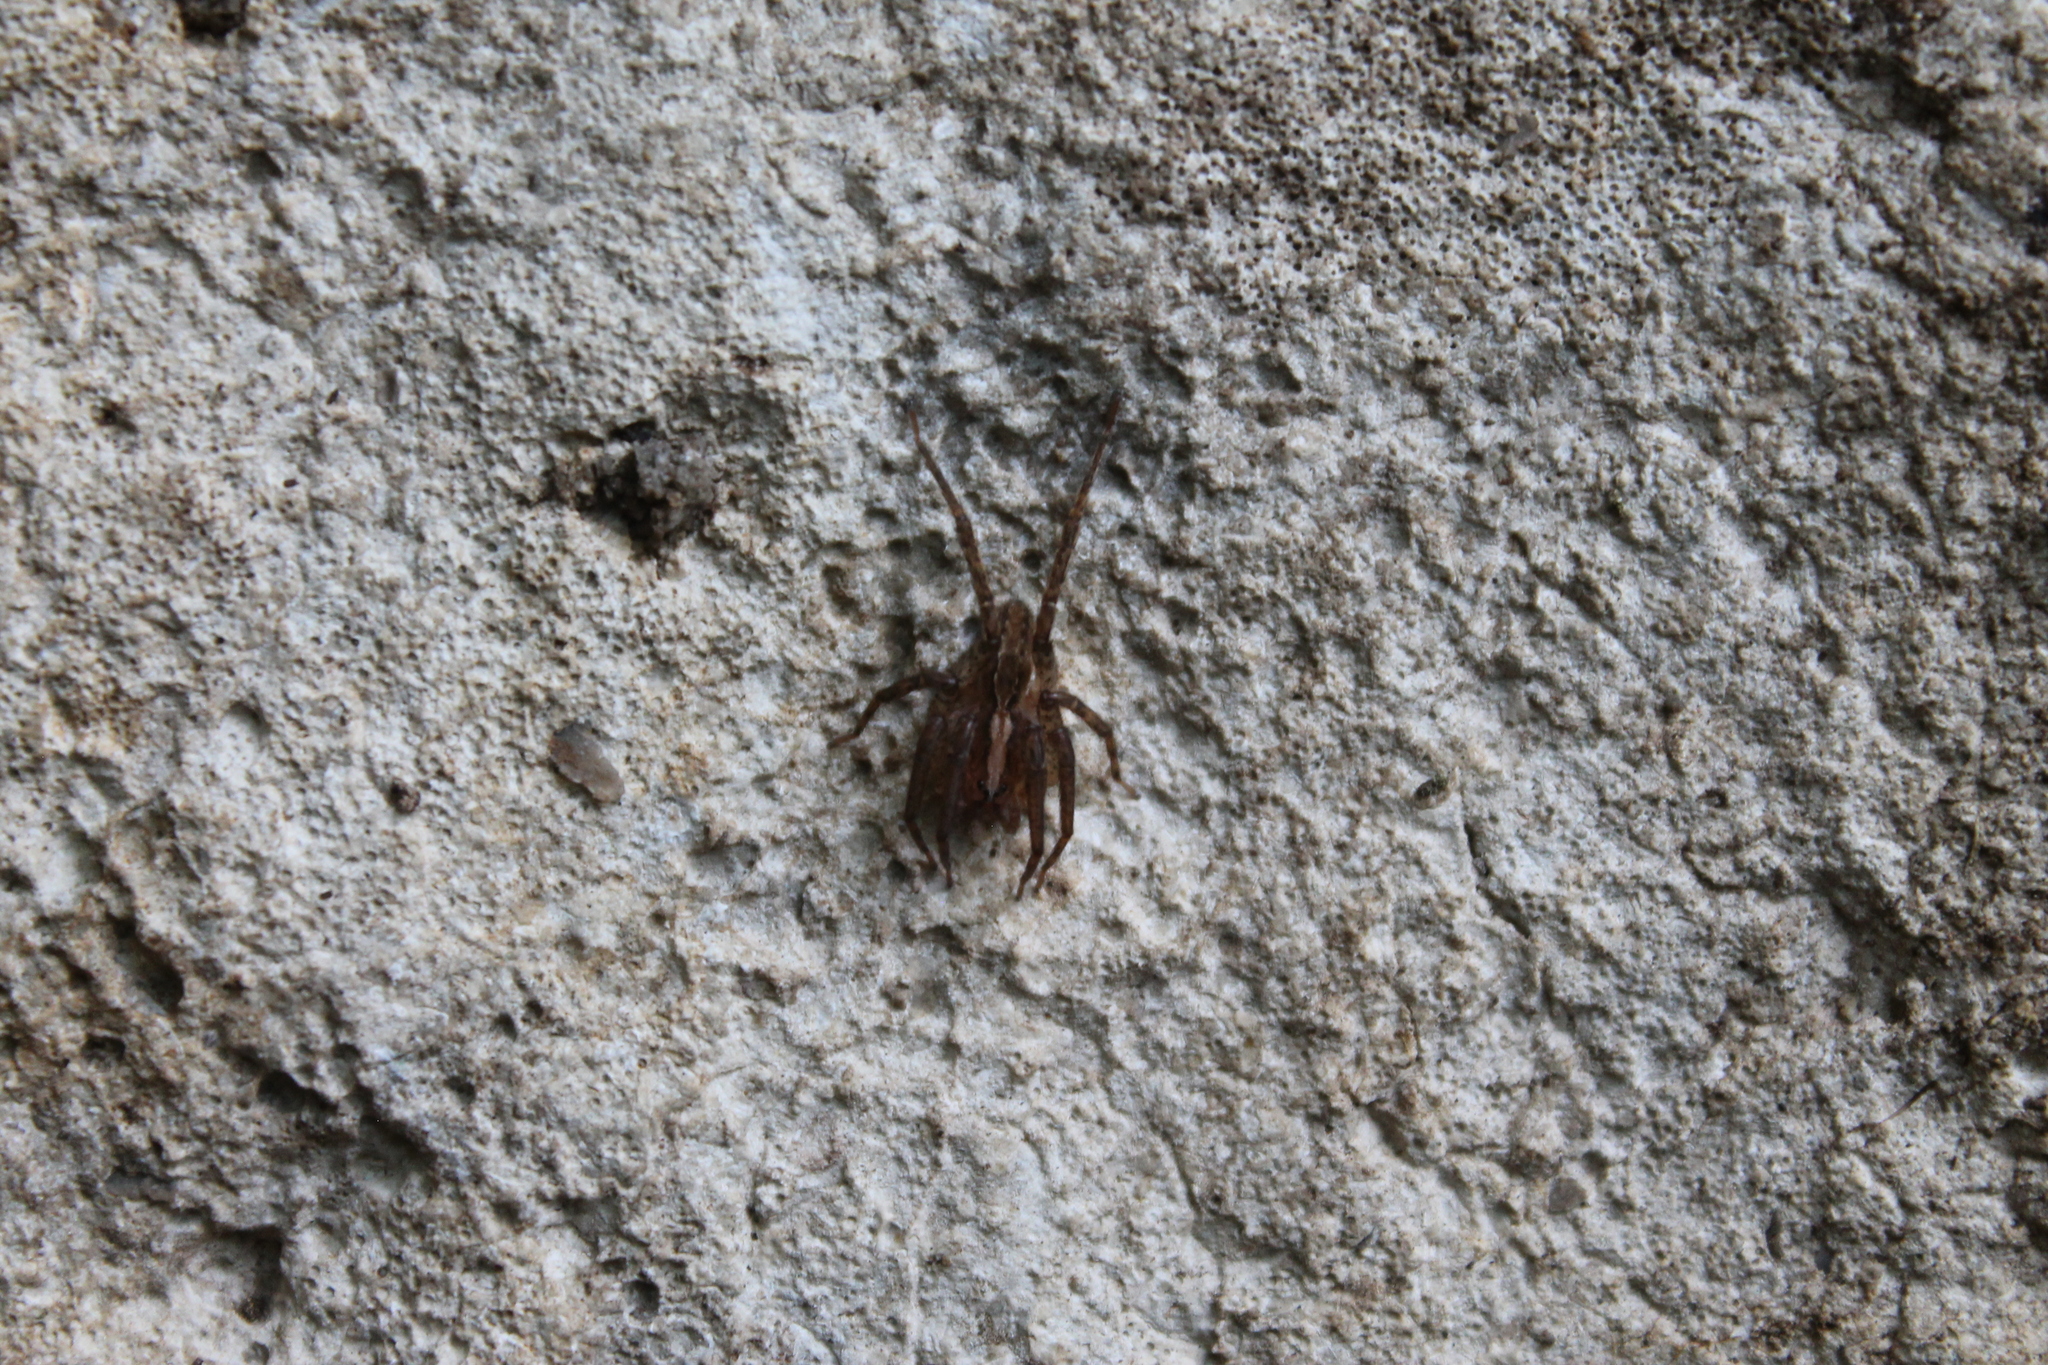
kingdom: Animalia
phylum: Arthropoda
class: Arachnida
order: Araneae
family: Ctenidae
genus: Anahita
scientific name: Anahita punctulata
